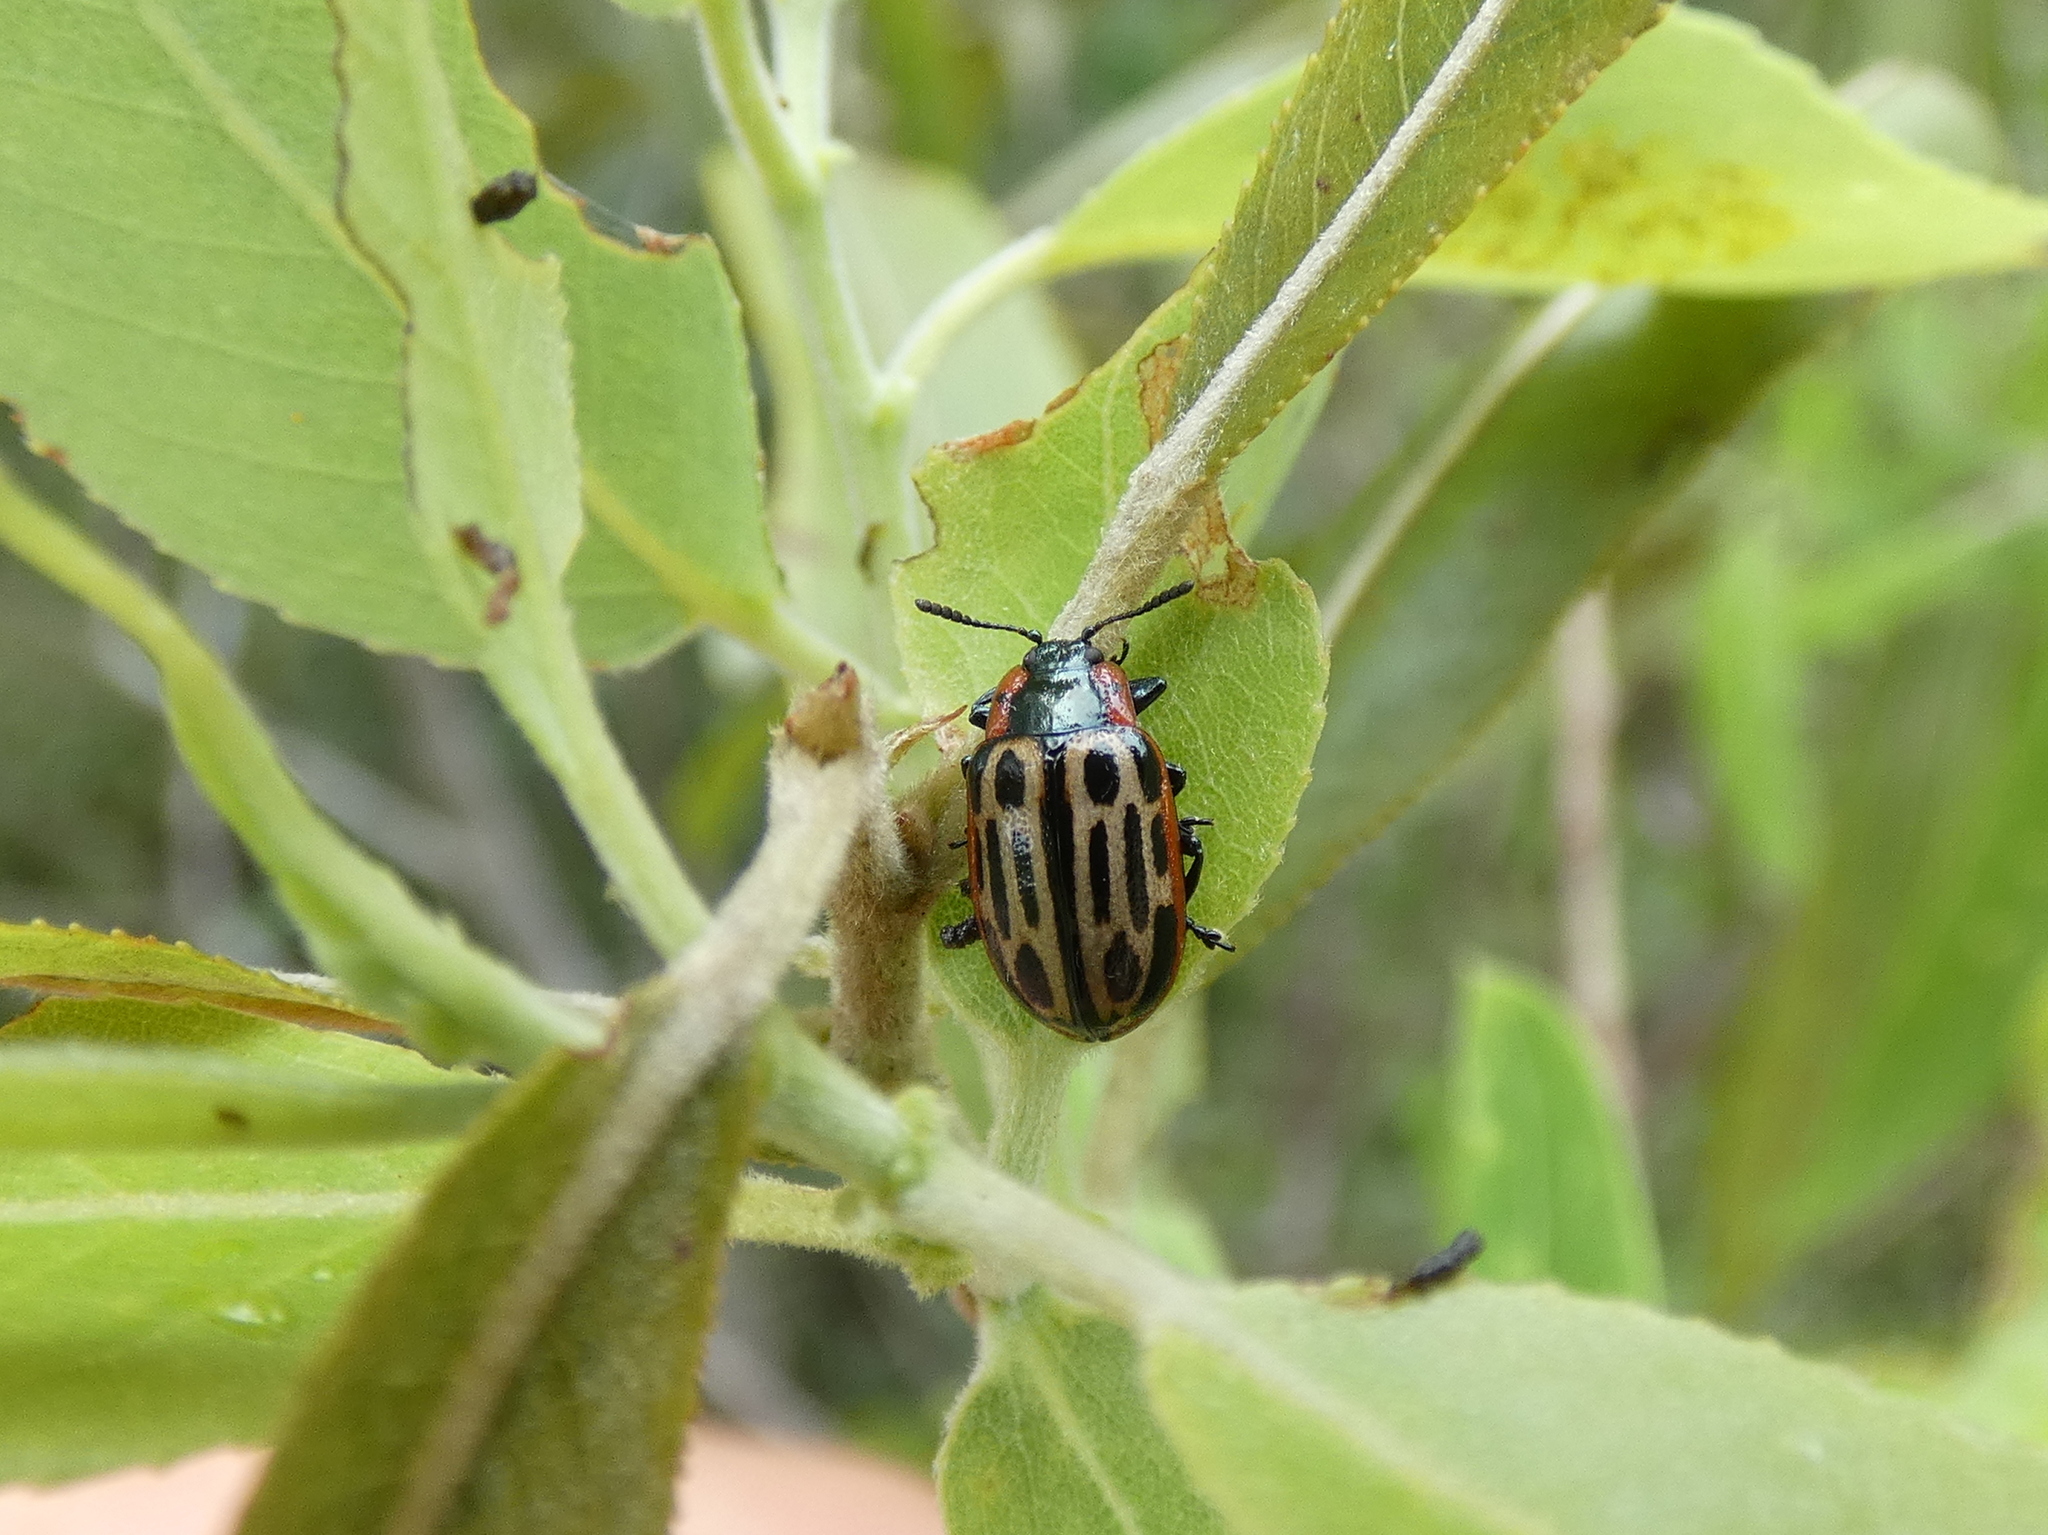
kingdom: Animalia
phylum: Arthropoda
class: Insecta
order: Coleoptera
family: Chrysomelidae
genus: Aethiopocassis
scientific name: Aethiopocassis scripta
